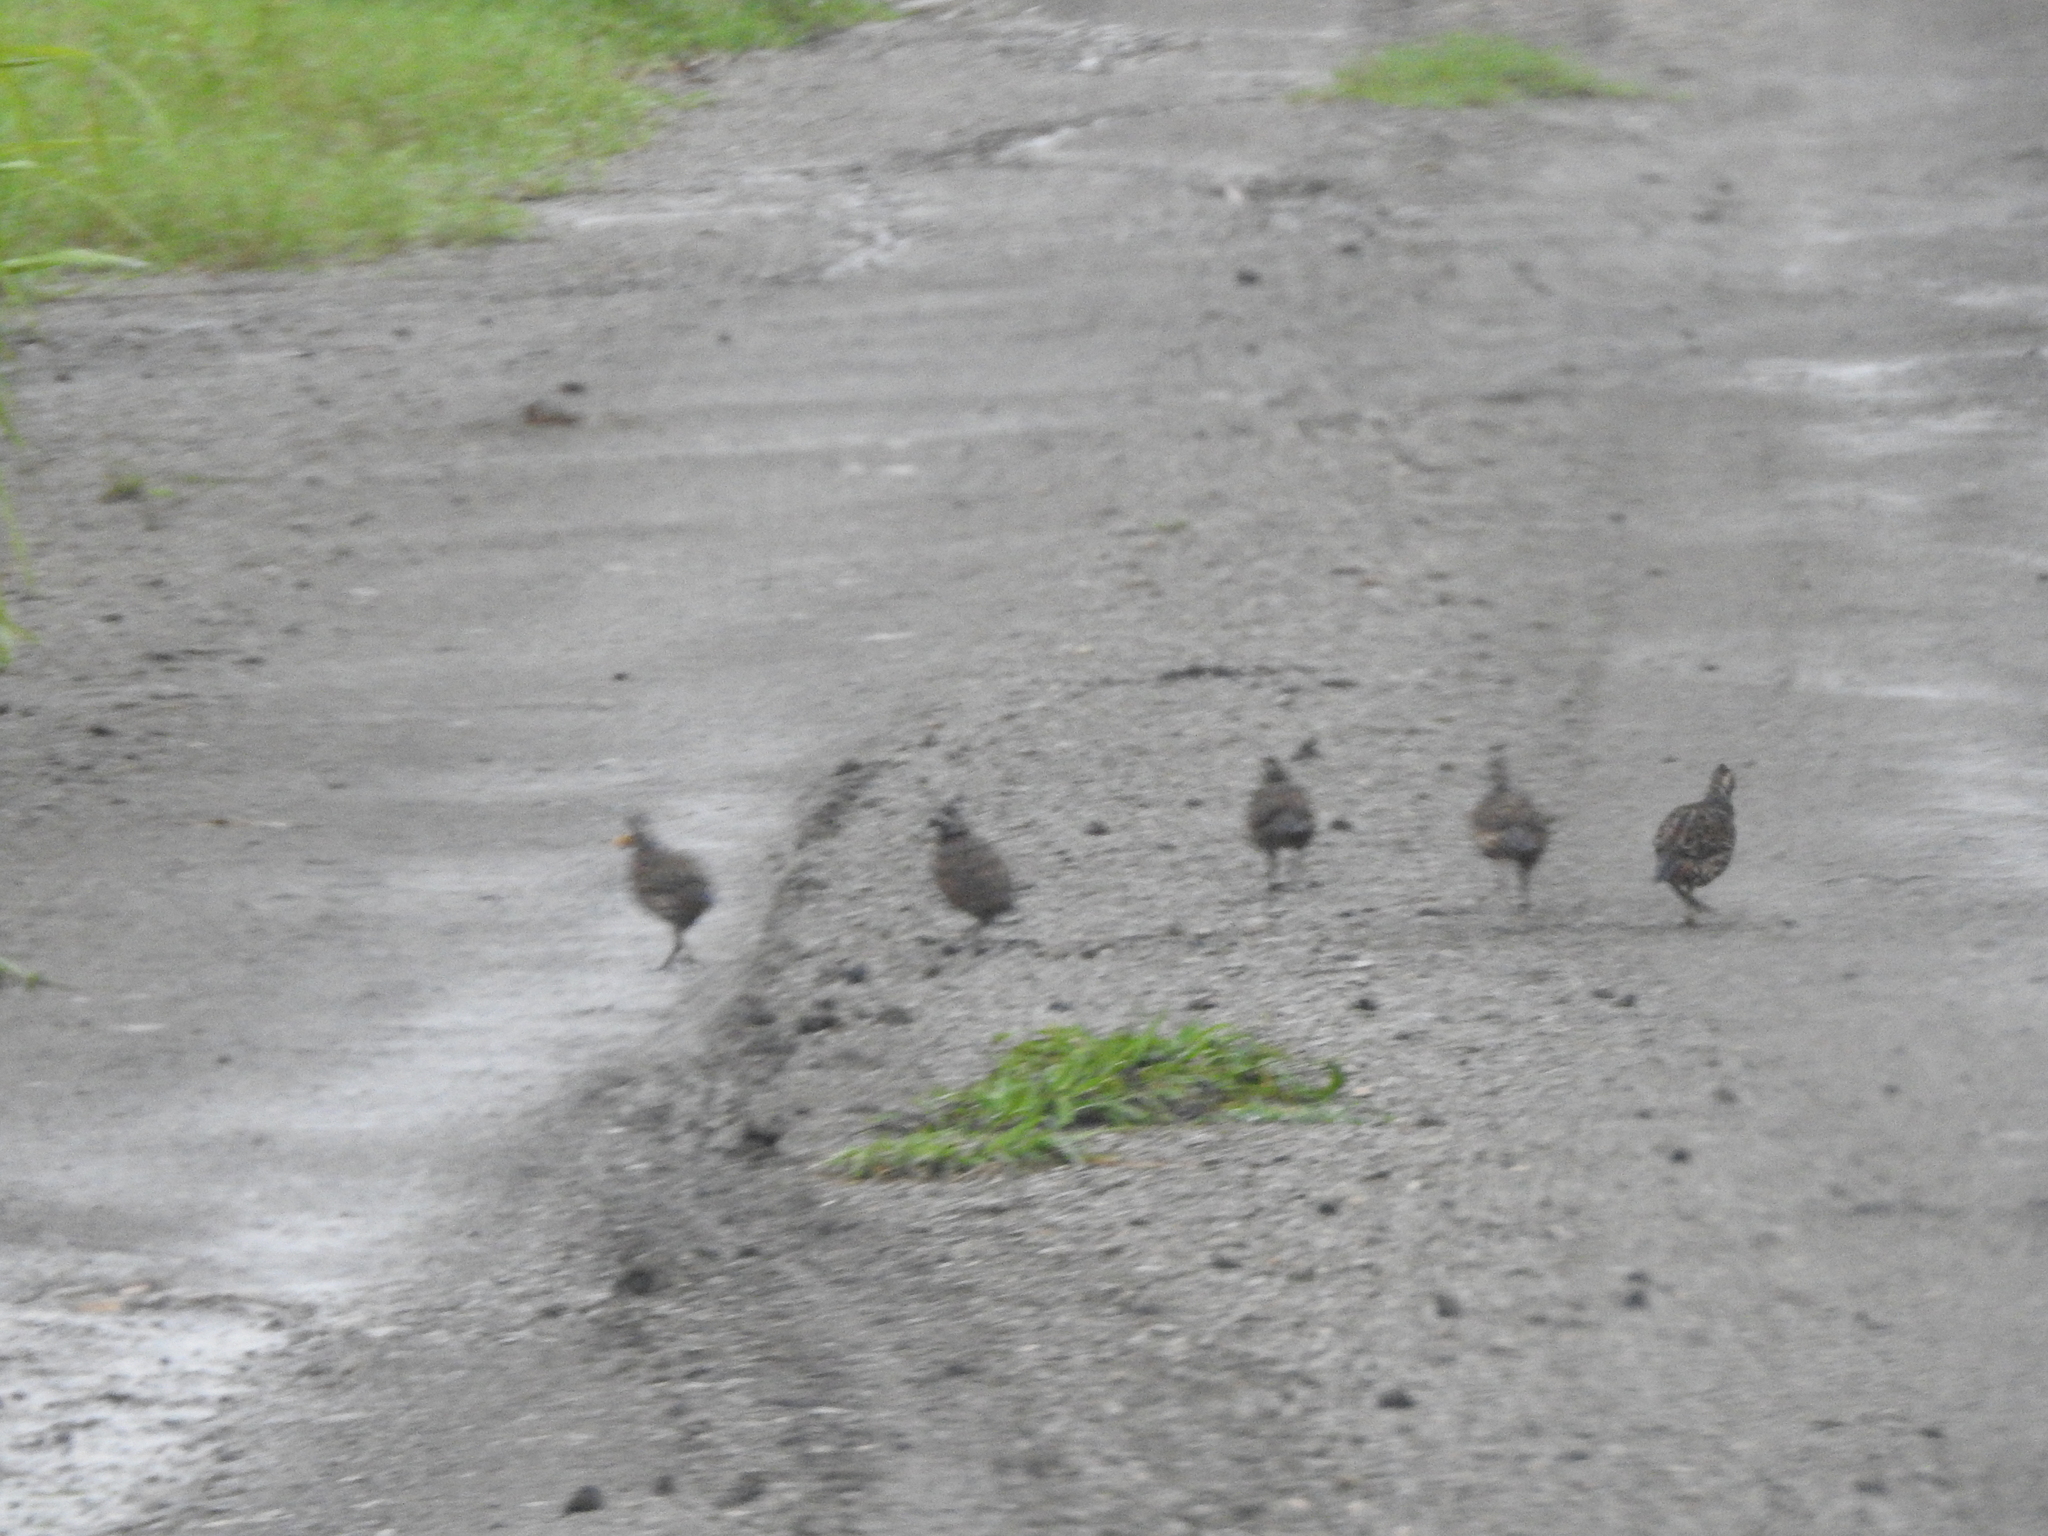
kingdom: Animalia
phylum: Chordata
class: Aves
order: Galliformes
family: Odontophoridae
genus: Colinus
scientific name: Colinus virginianus
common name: Northern bobwhite
